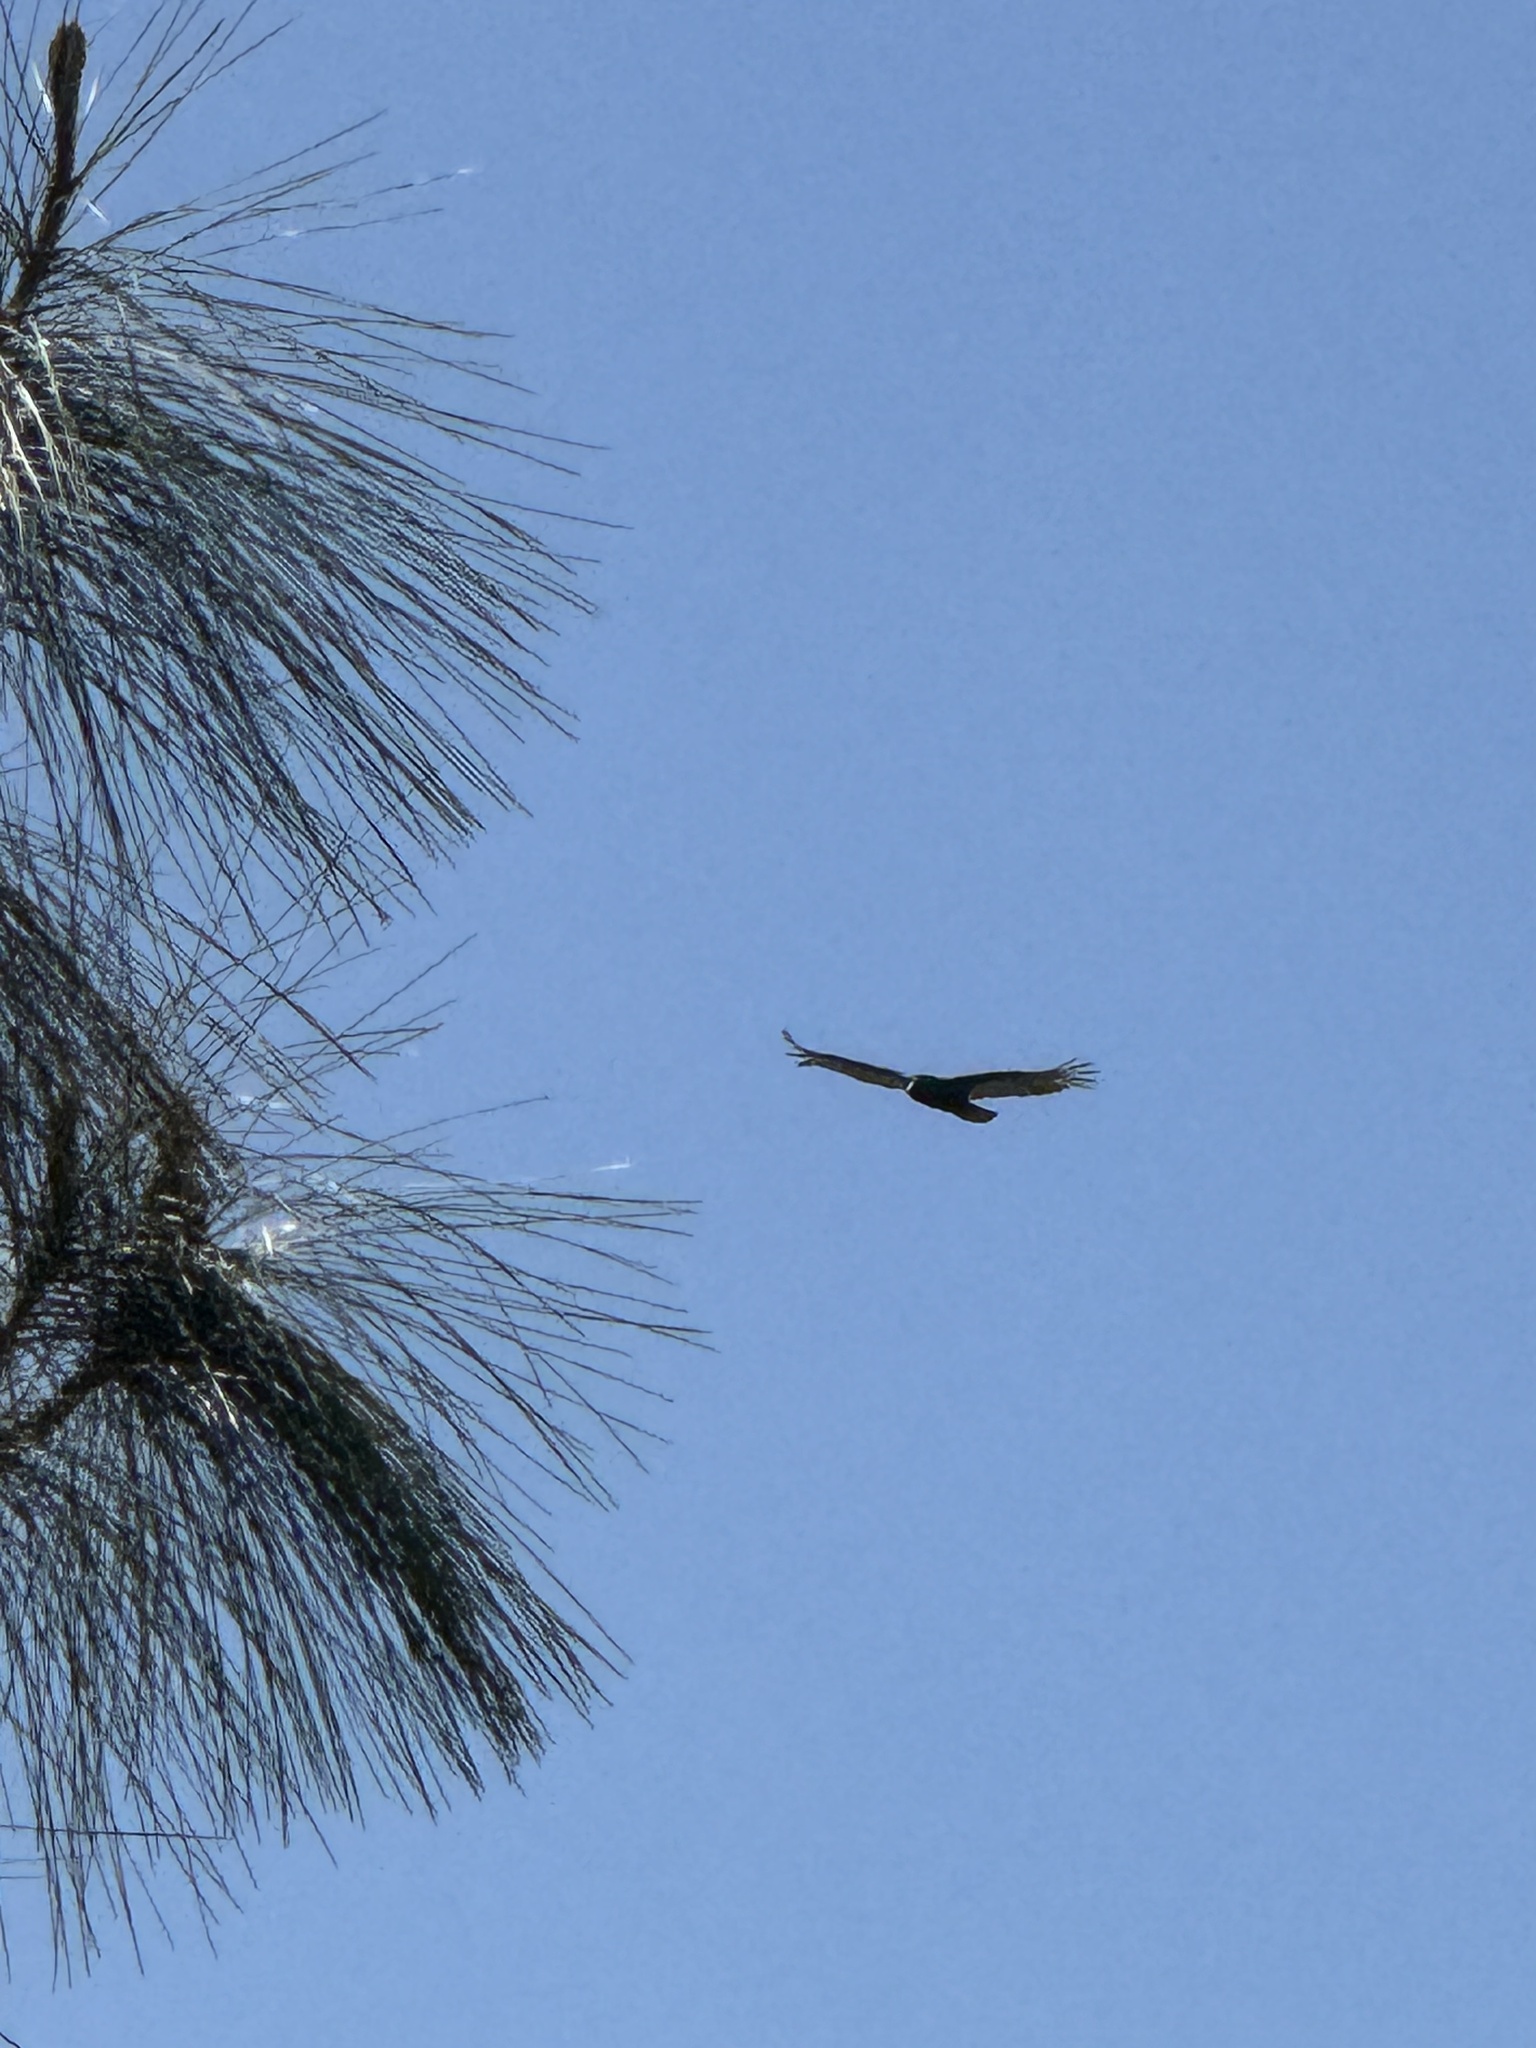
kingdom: Animalia
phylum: Chordata
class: Aves
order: Accipitriformes
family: Cathartidae
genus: Cathartes
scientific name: Cathartes aura
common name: Turkey vulture
